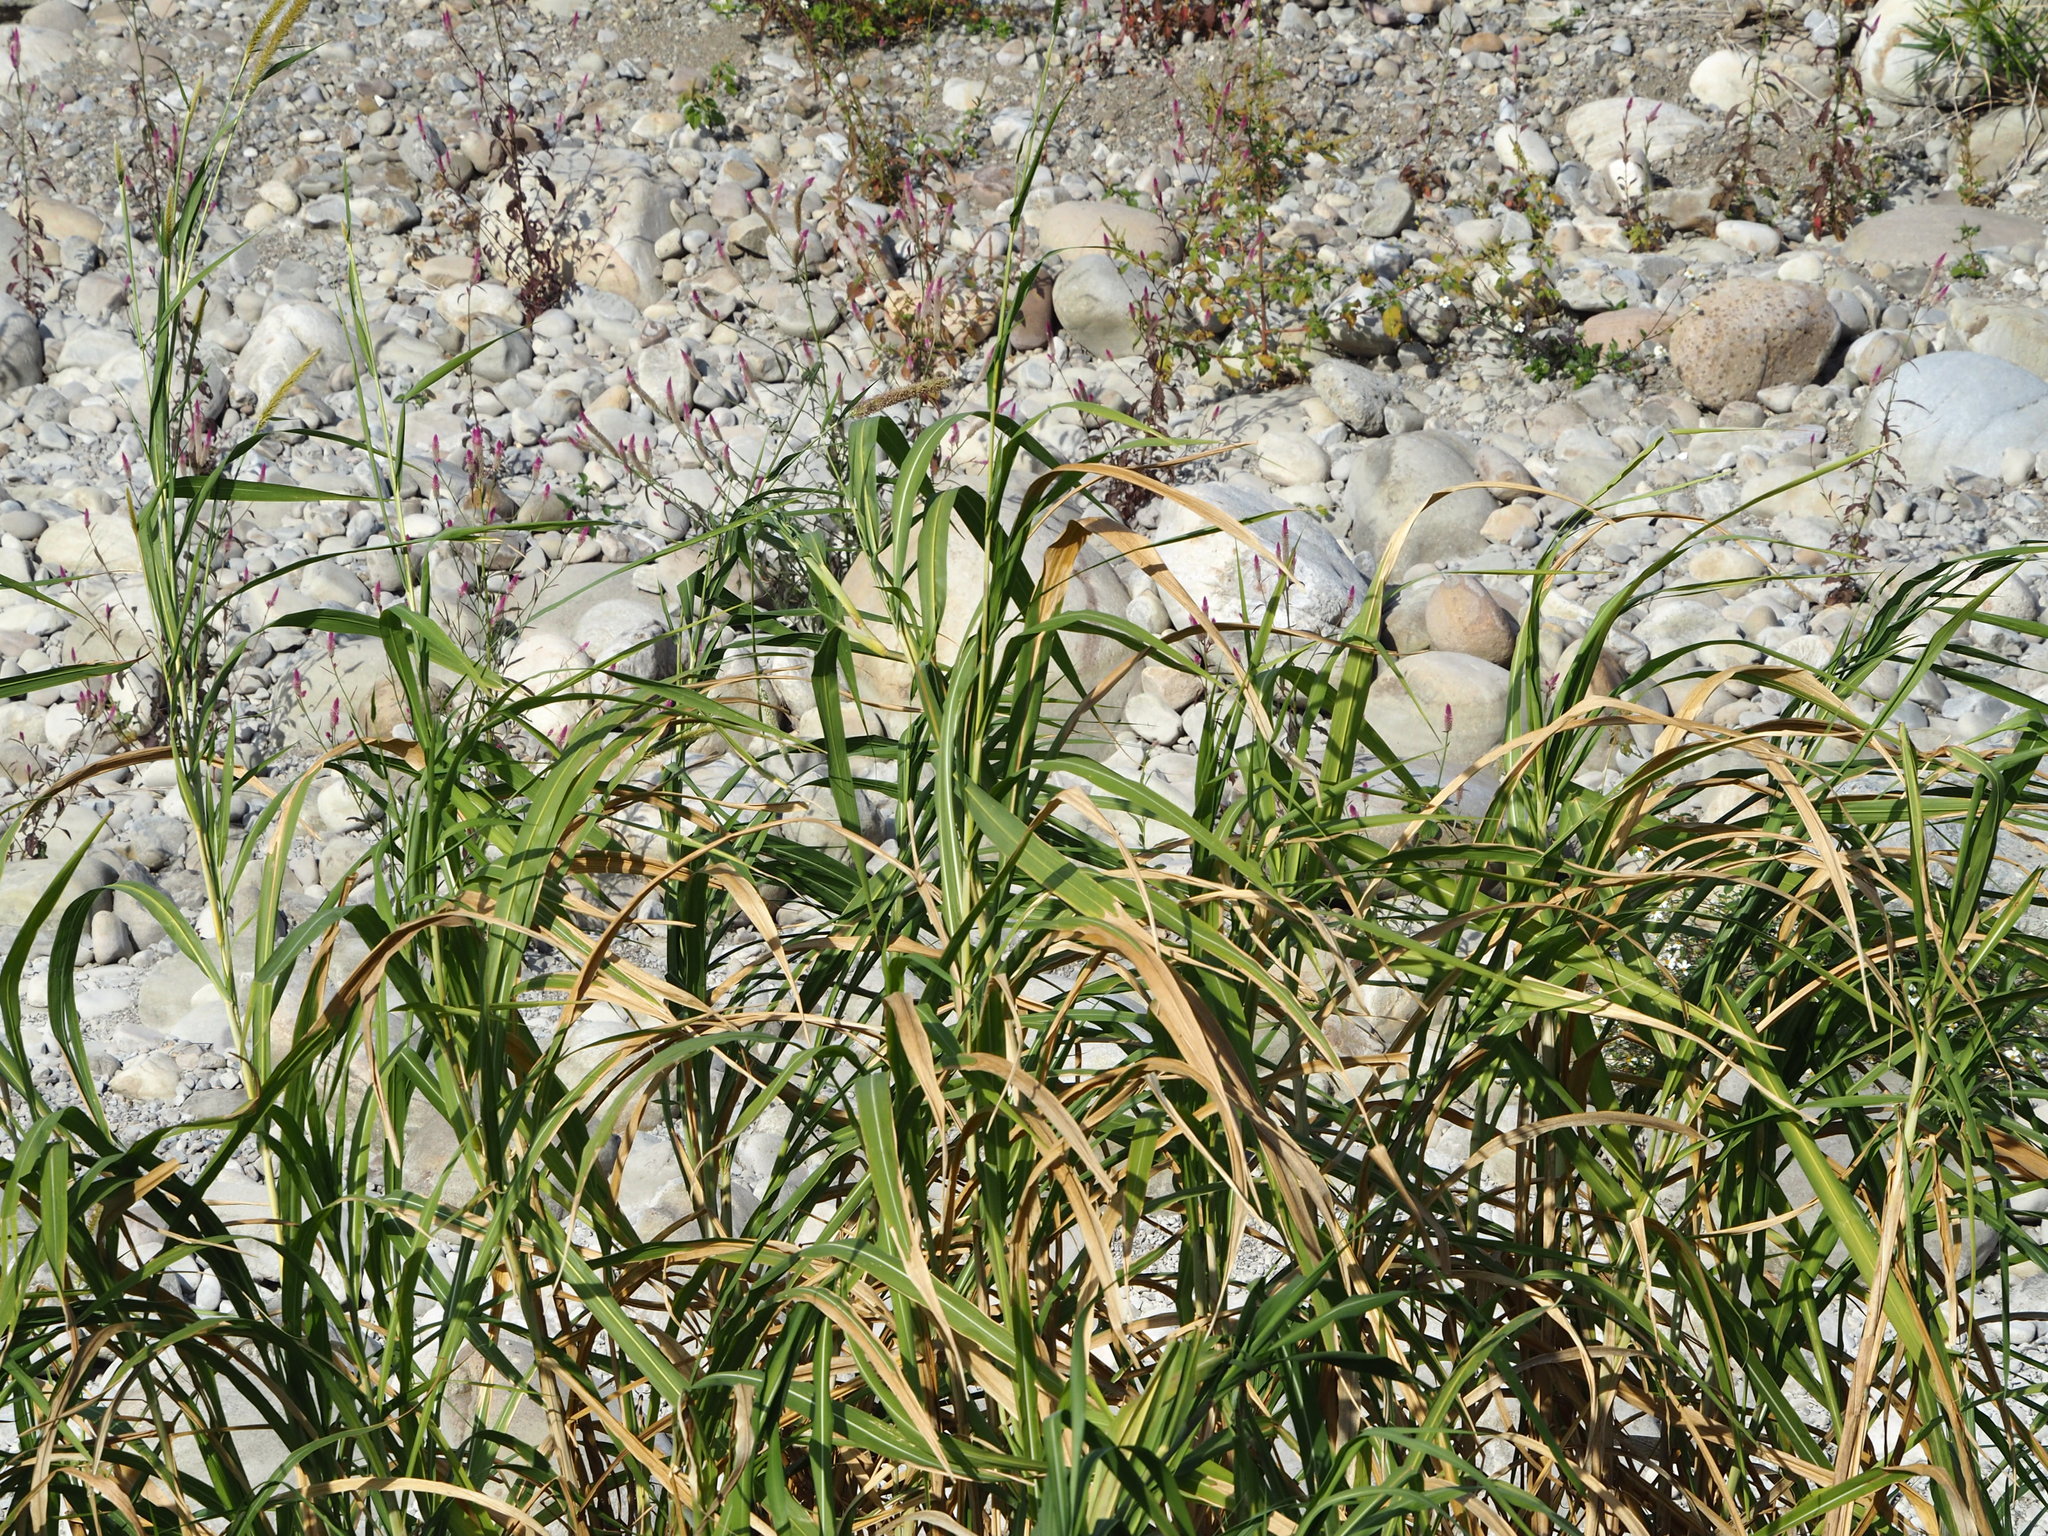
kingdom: Plantae
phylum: Tracheophyta
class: Liliopsida
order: Poales
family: Poaceae
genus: Cenchrus
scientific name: Cenchrus purpureus
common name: Elephant grass
